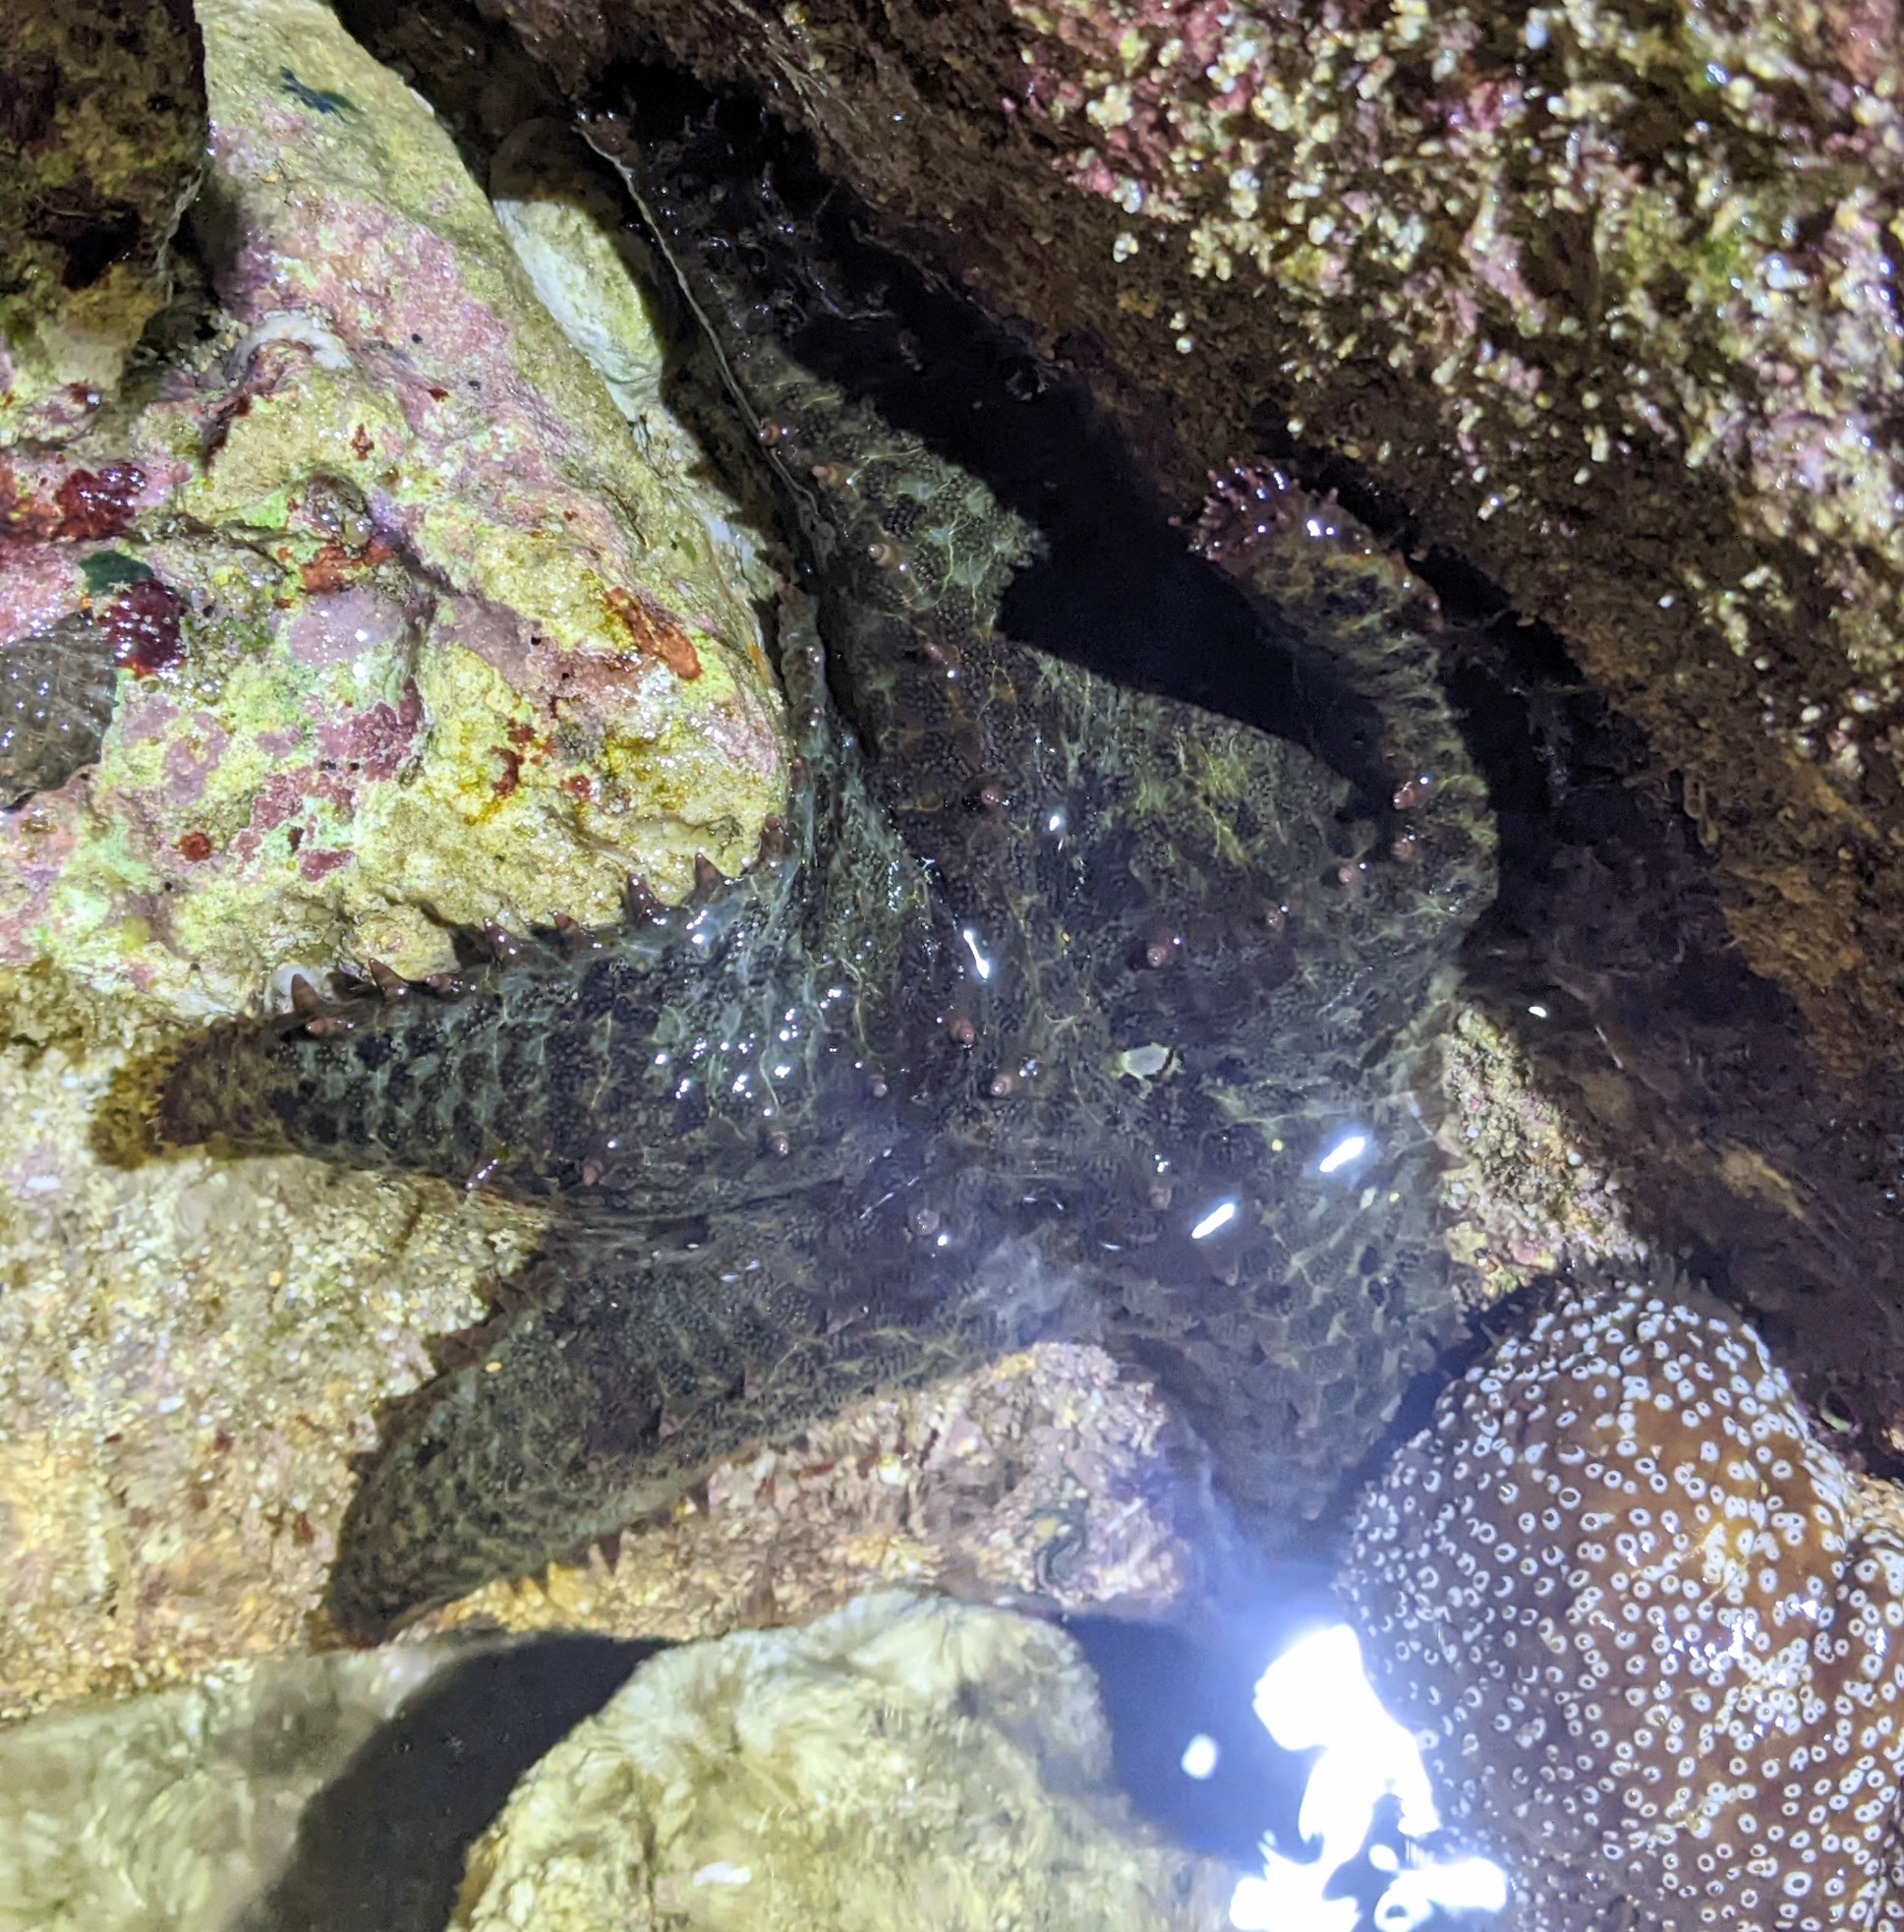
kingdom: Animalia
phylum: Echinodermata
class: Asteroidea
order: Valvatida
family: Asteropseidae
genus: Asteropsis
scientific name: Asteropsis carinifera
